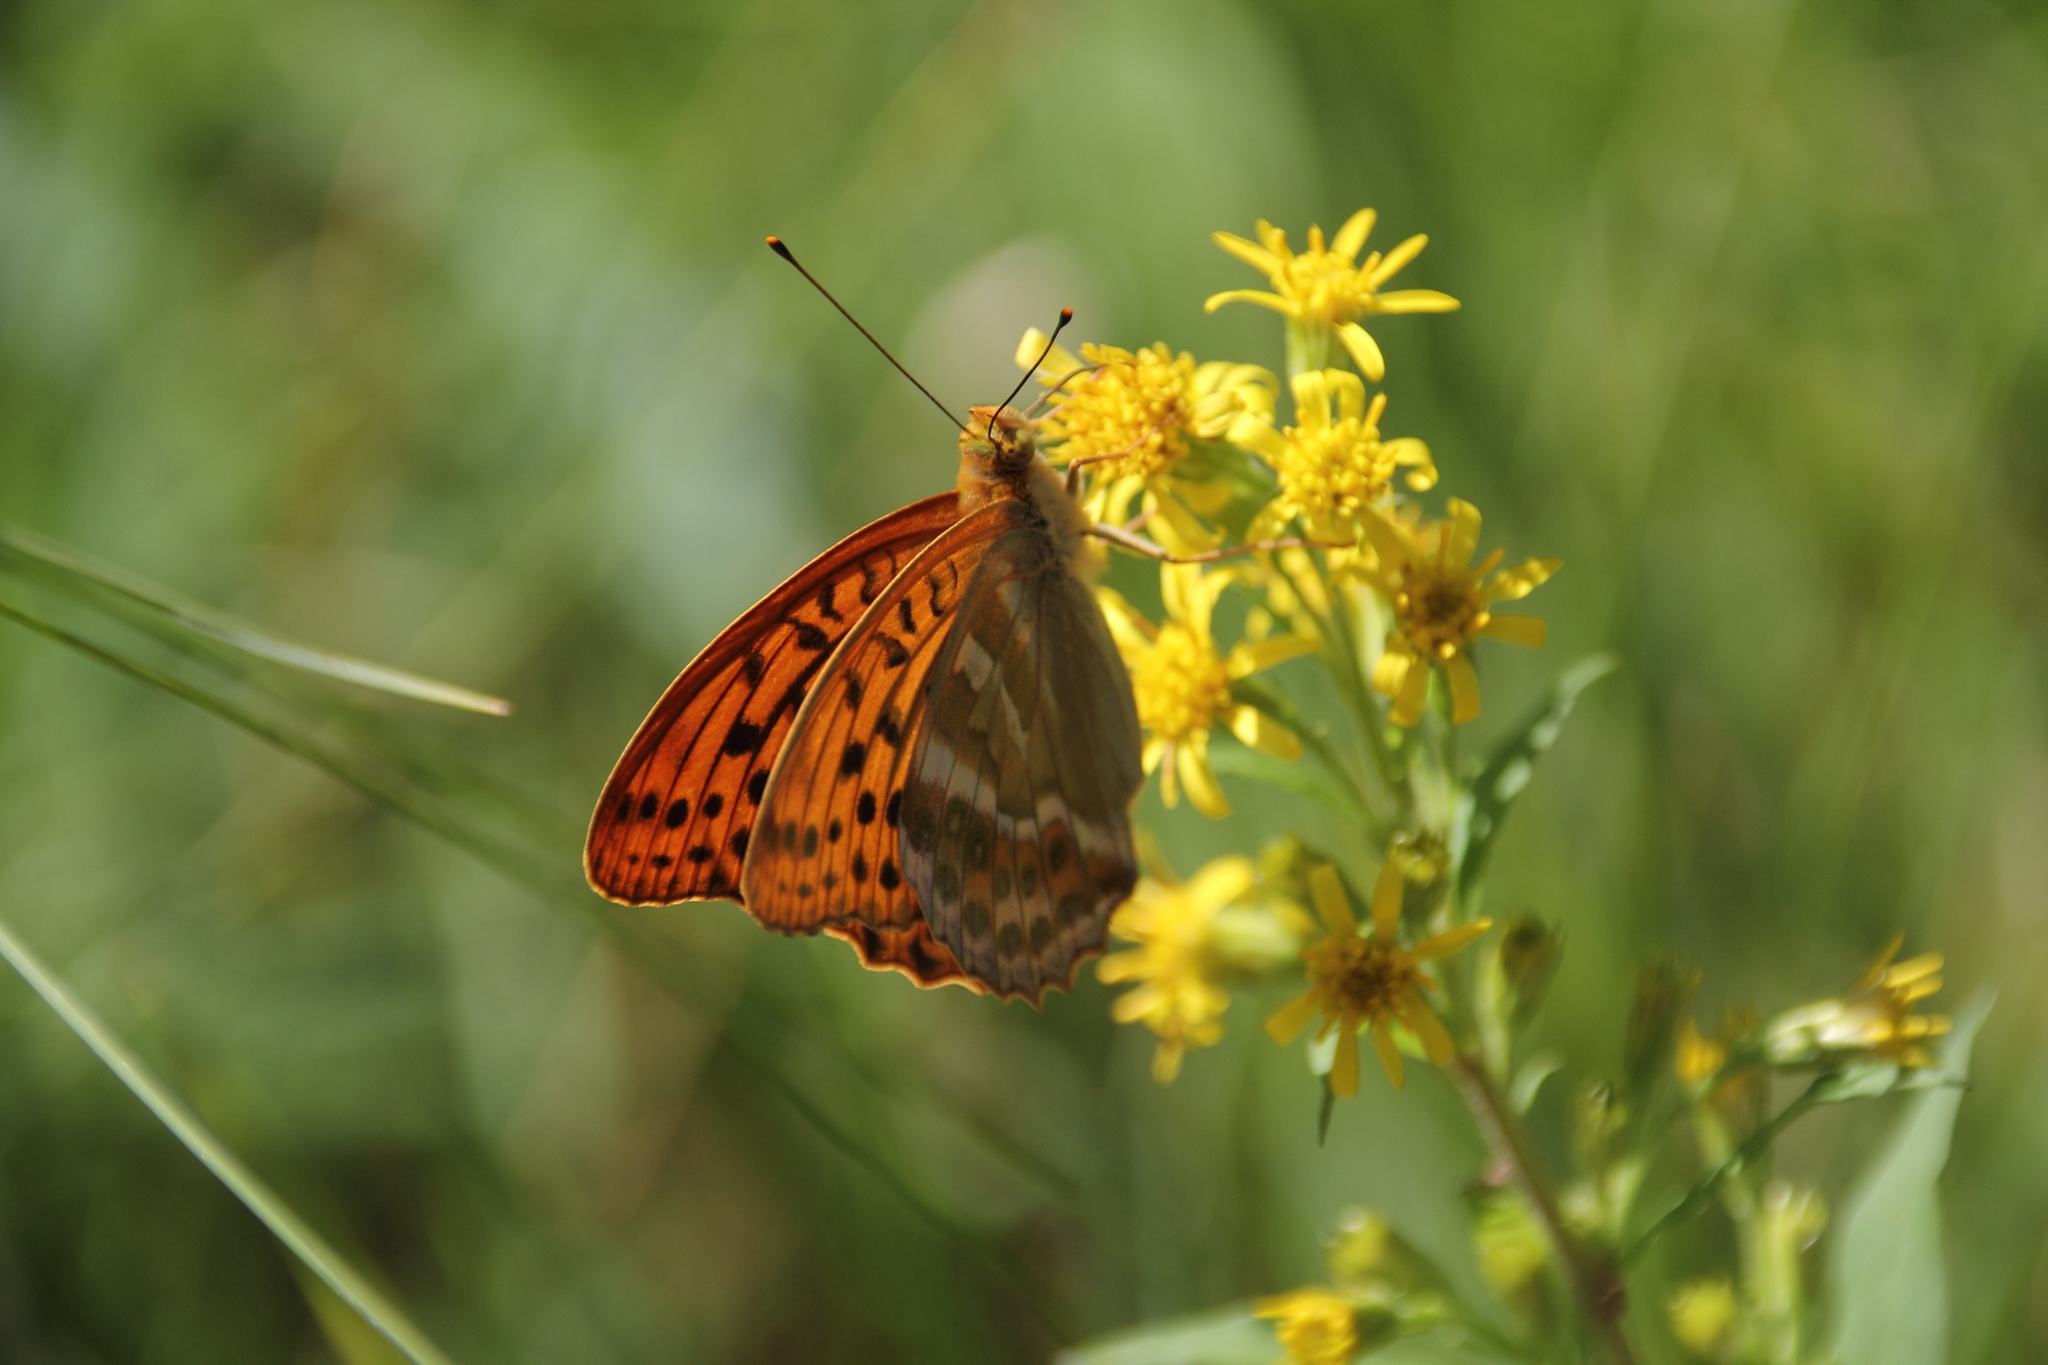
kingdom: Animalia
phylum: Arthropoda
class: Insecta
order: Lepidoptera
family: Nymphalidae
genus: Argynnis
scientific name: Argynnis paphia
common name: Silver-washed fritillary
